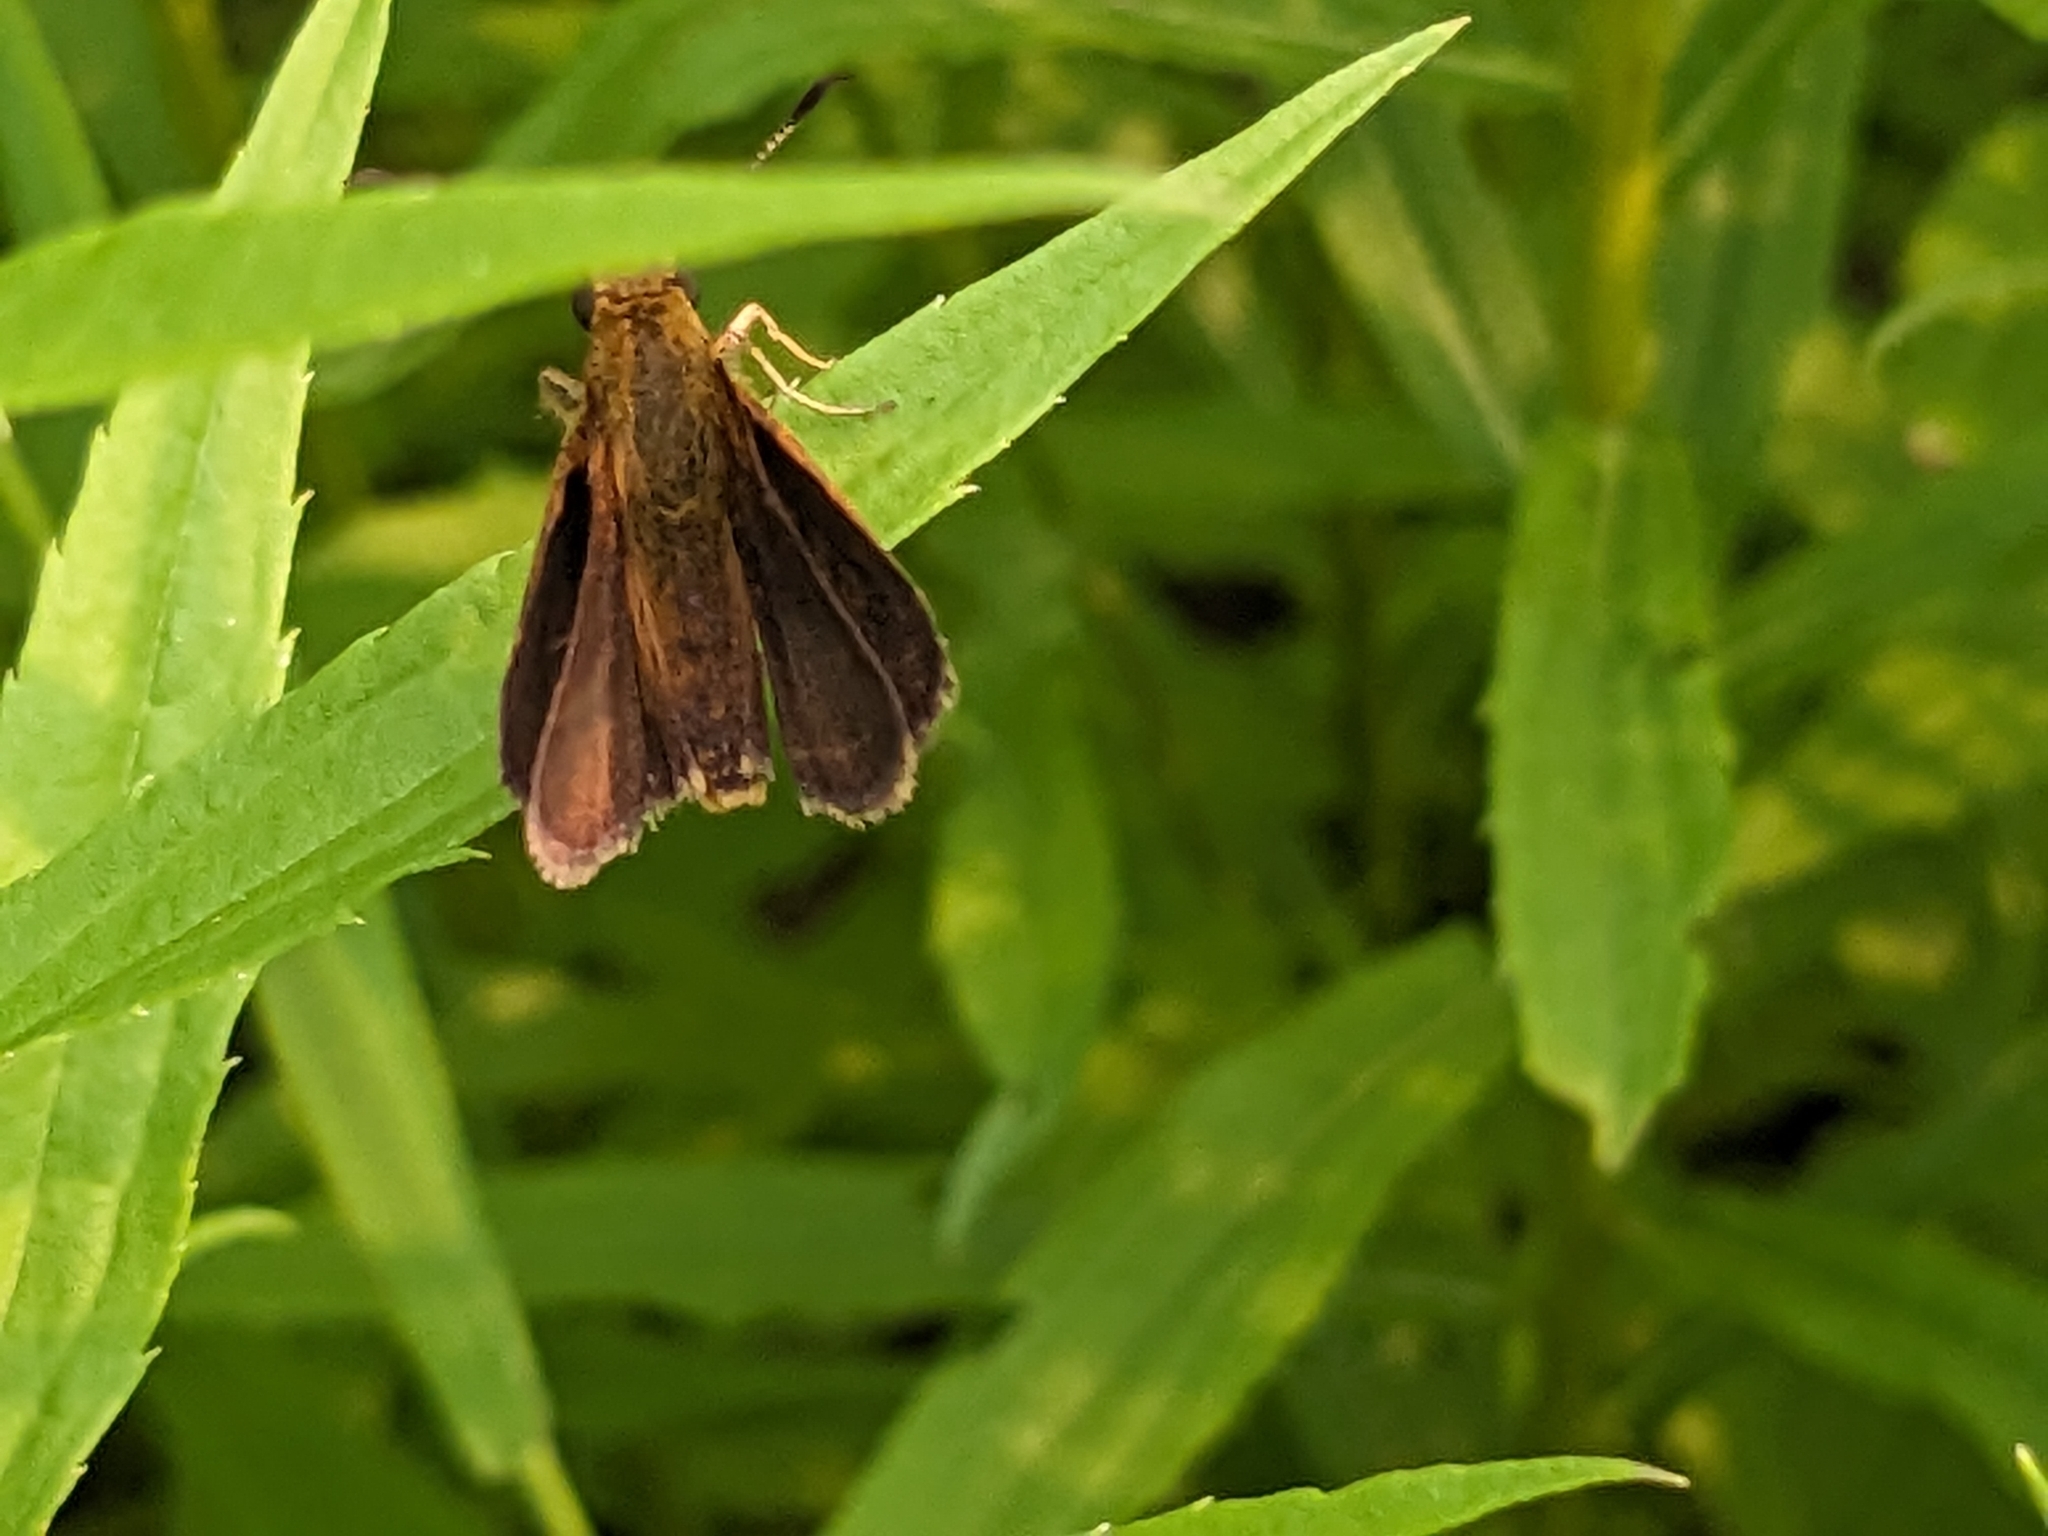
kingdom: Animalia
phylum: Arthropoda
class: Insecta
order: Lepidoptera
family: Hesperiidae
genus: Poanes
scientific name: Poanes massasoit
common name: Mulberrywing
